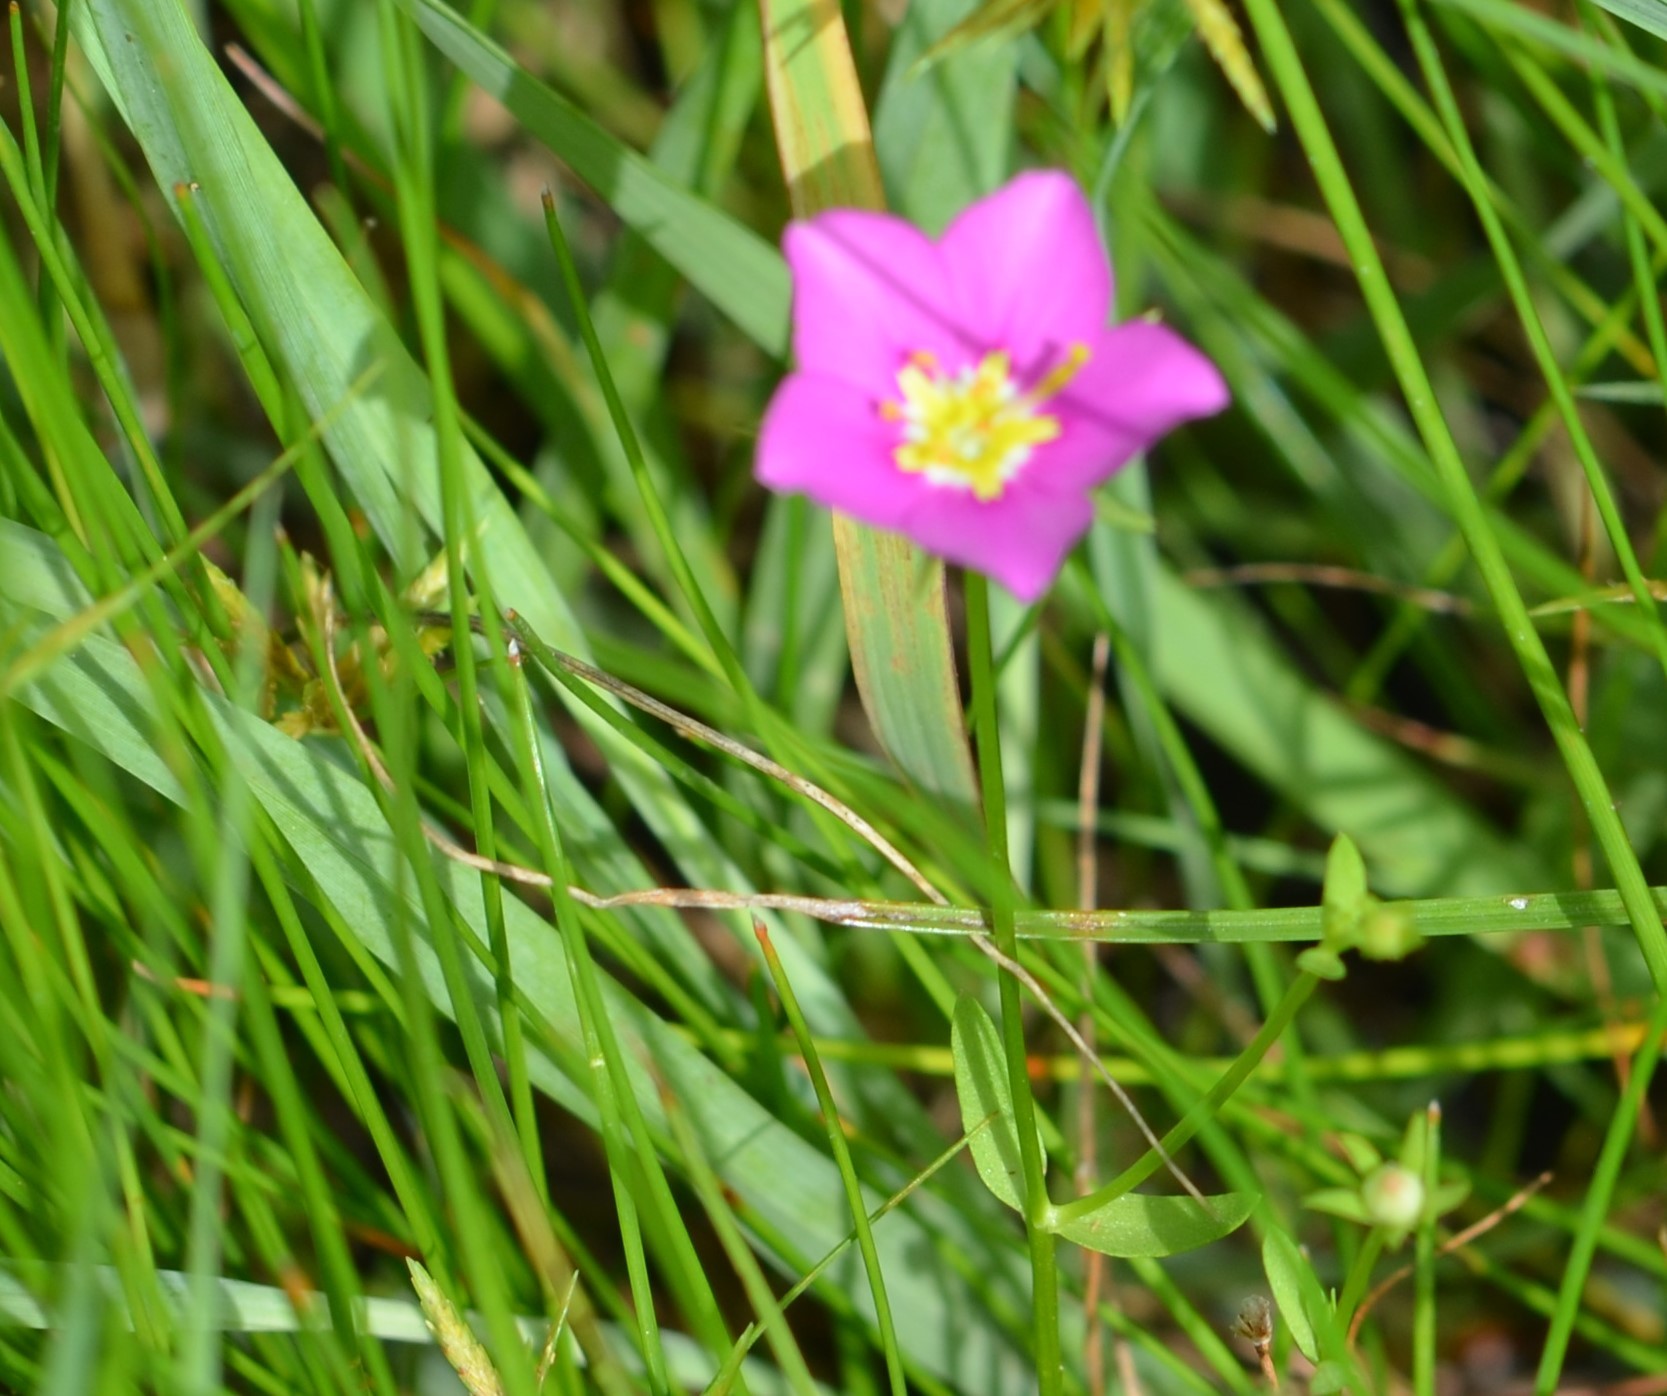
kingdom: Plantae
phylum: Tracheophyta
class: Magnoliopsida
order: Gentianales
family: Gentianaceae
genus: Sabatia
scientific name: Sabatia campestris
